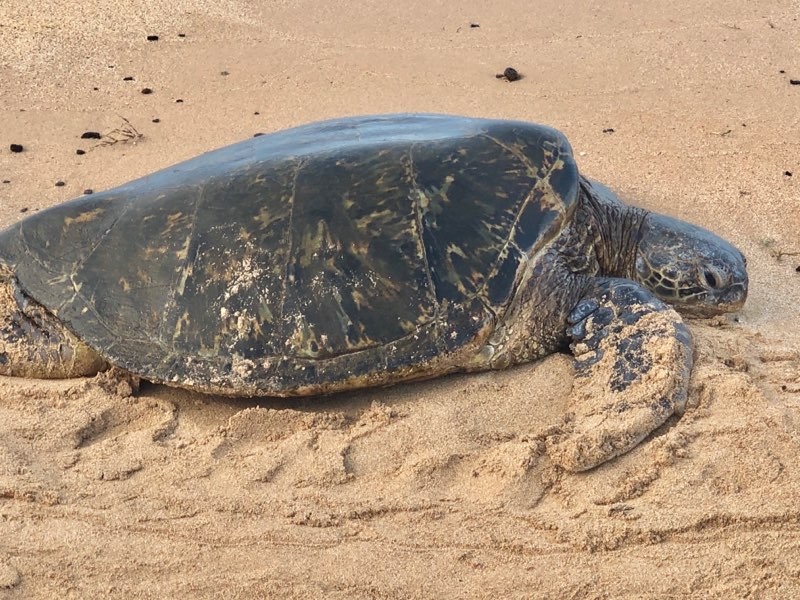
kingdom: Animalia
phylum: Chordata
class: Testudines
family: Cheloniidae
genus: Chelonia
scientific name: Chelonia mydas
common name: Green turtle
